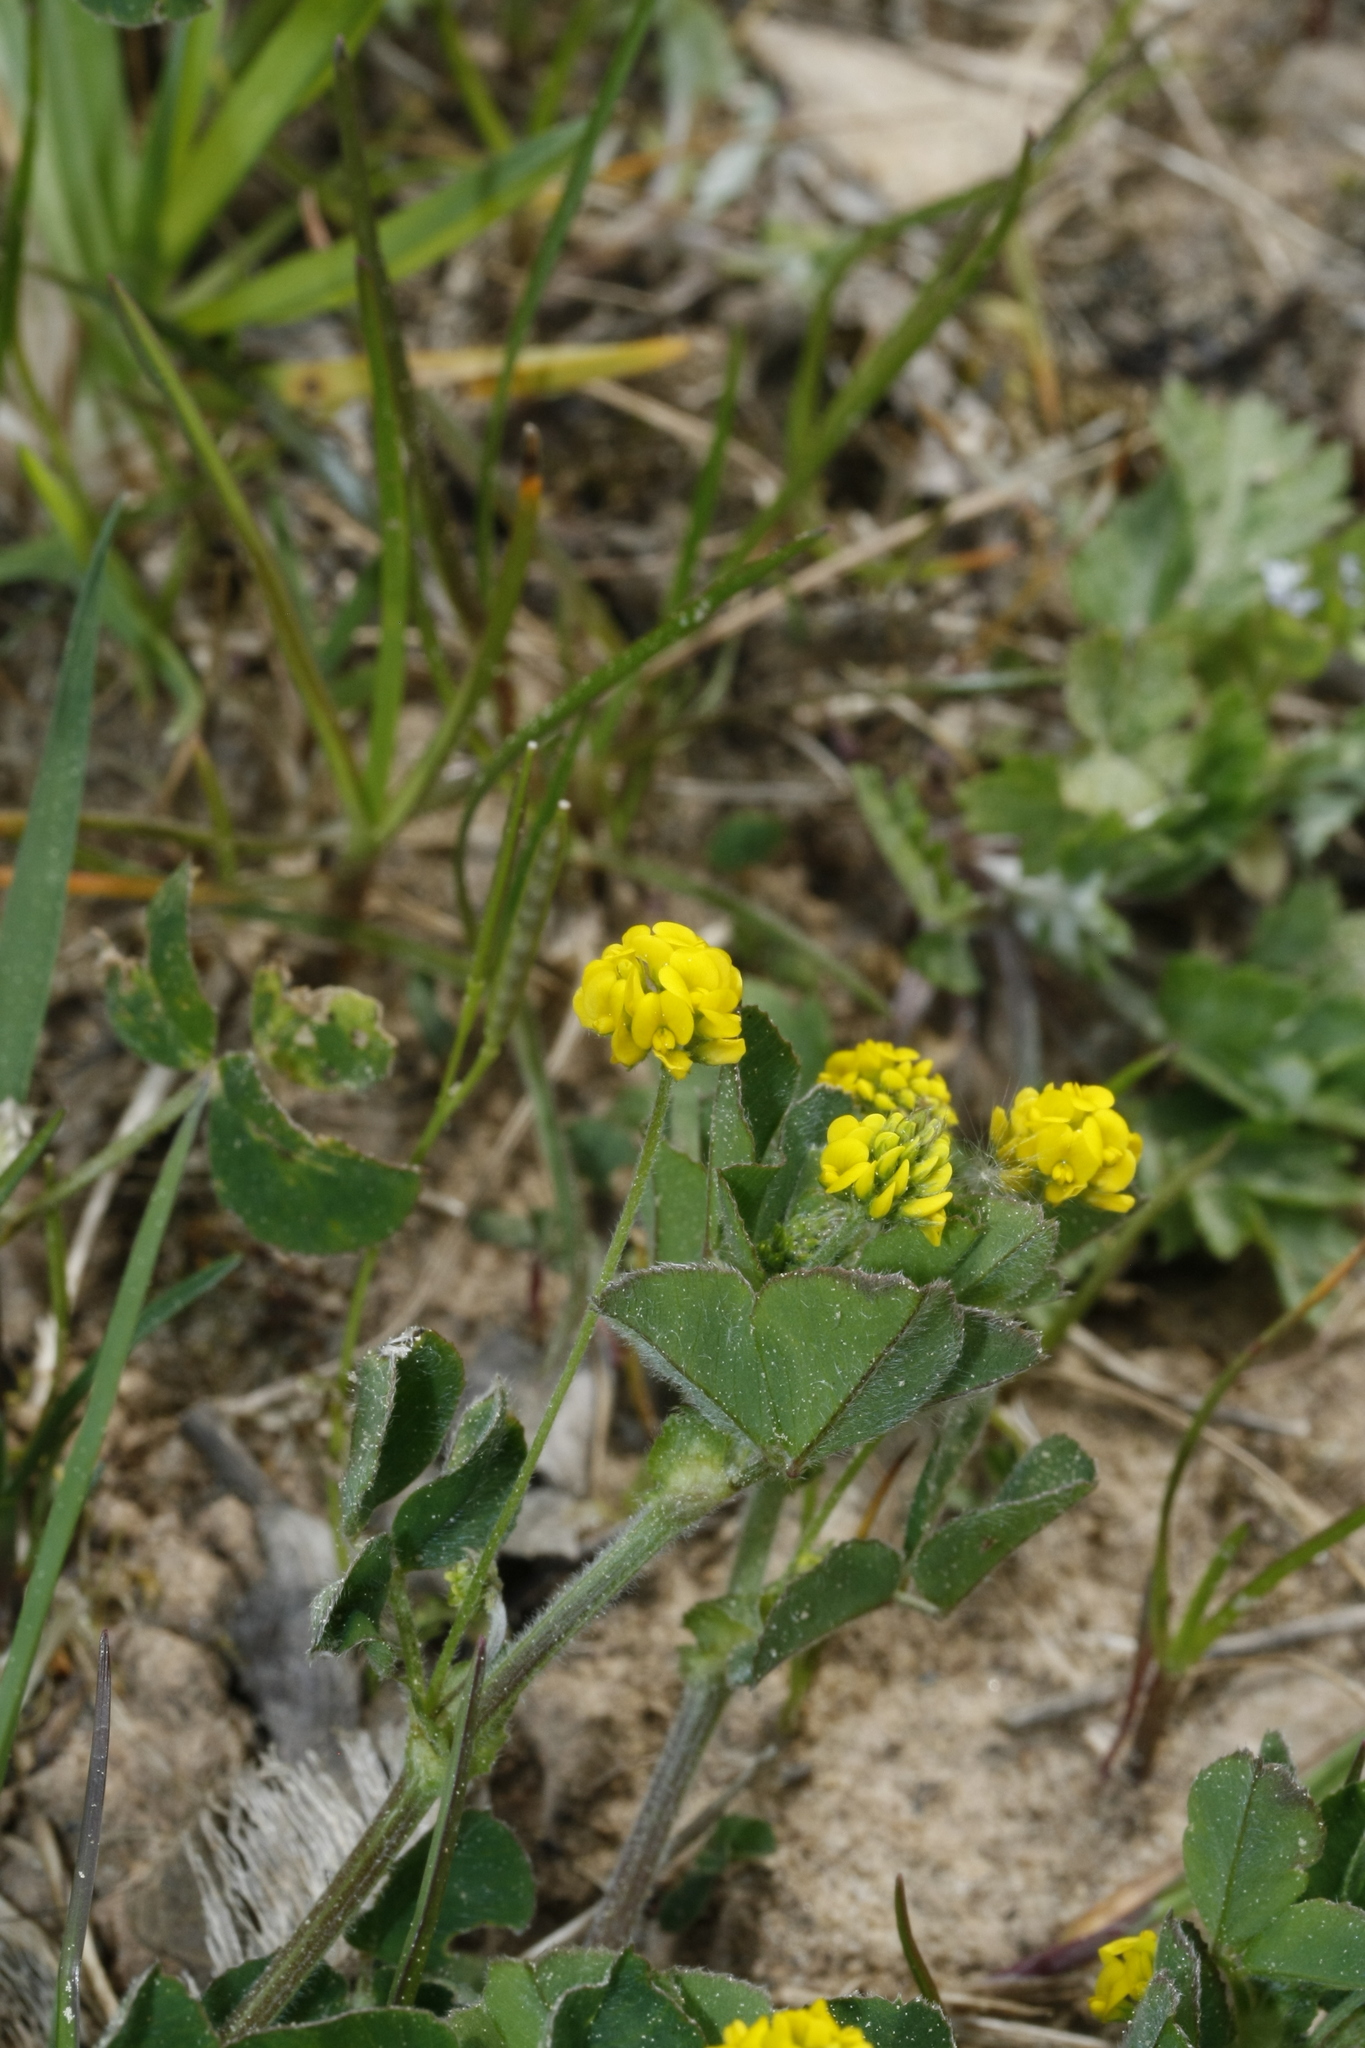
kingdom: Plantae
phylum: Tracheophyta
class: Magnoliopsida
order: Fabales
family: Fabaceae
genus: Medicago
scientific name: Medicago lupulina
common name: Black medick
